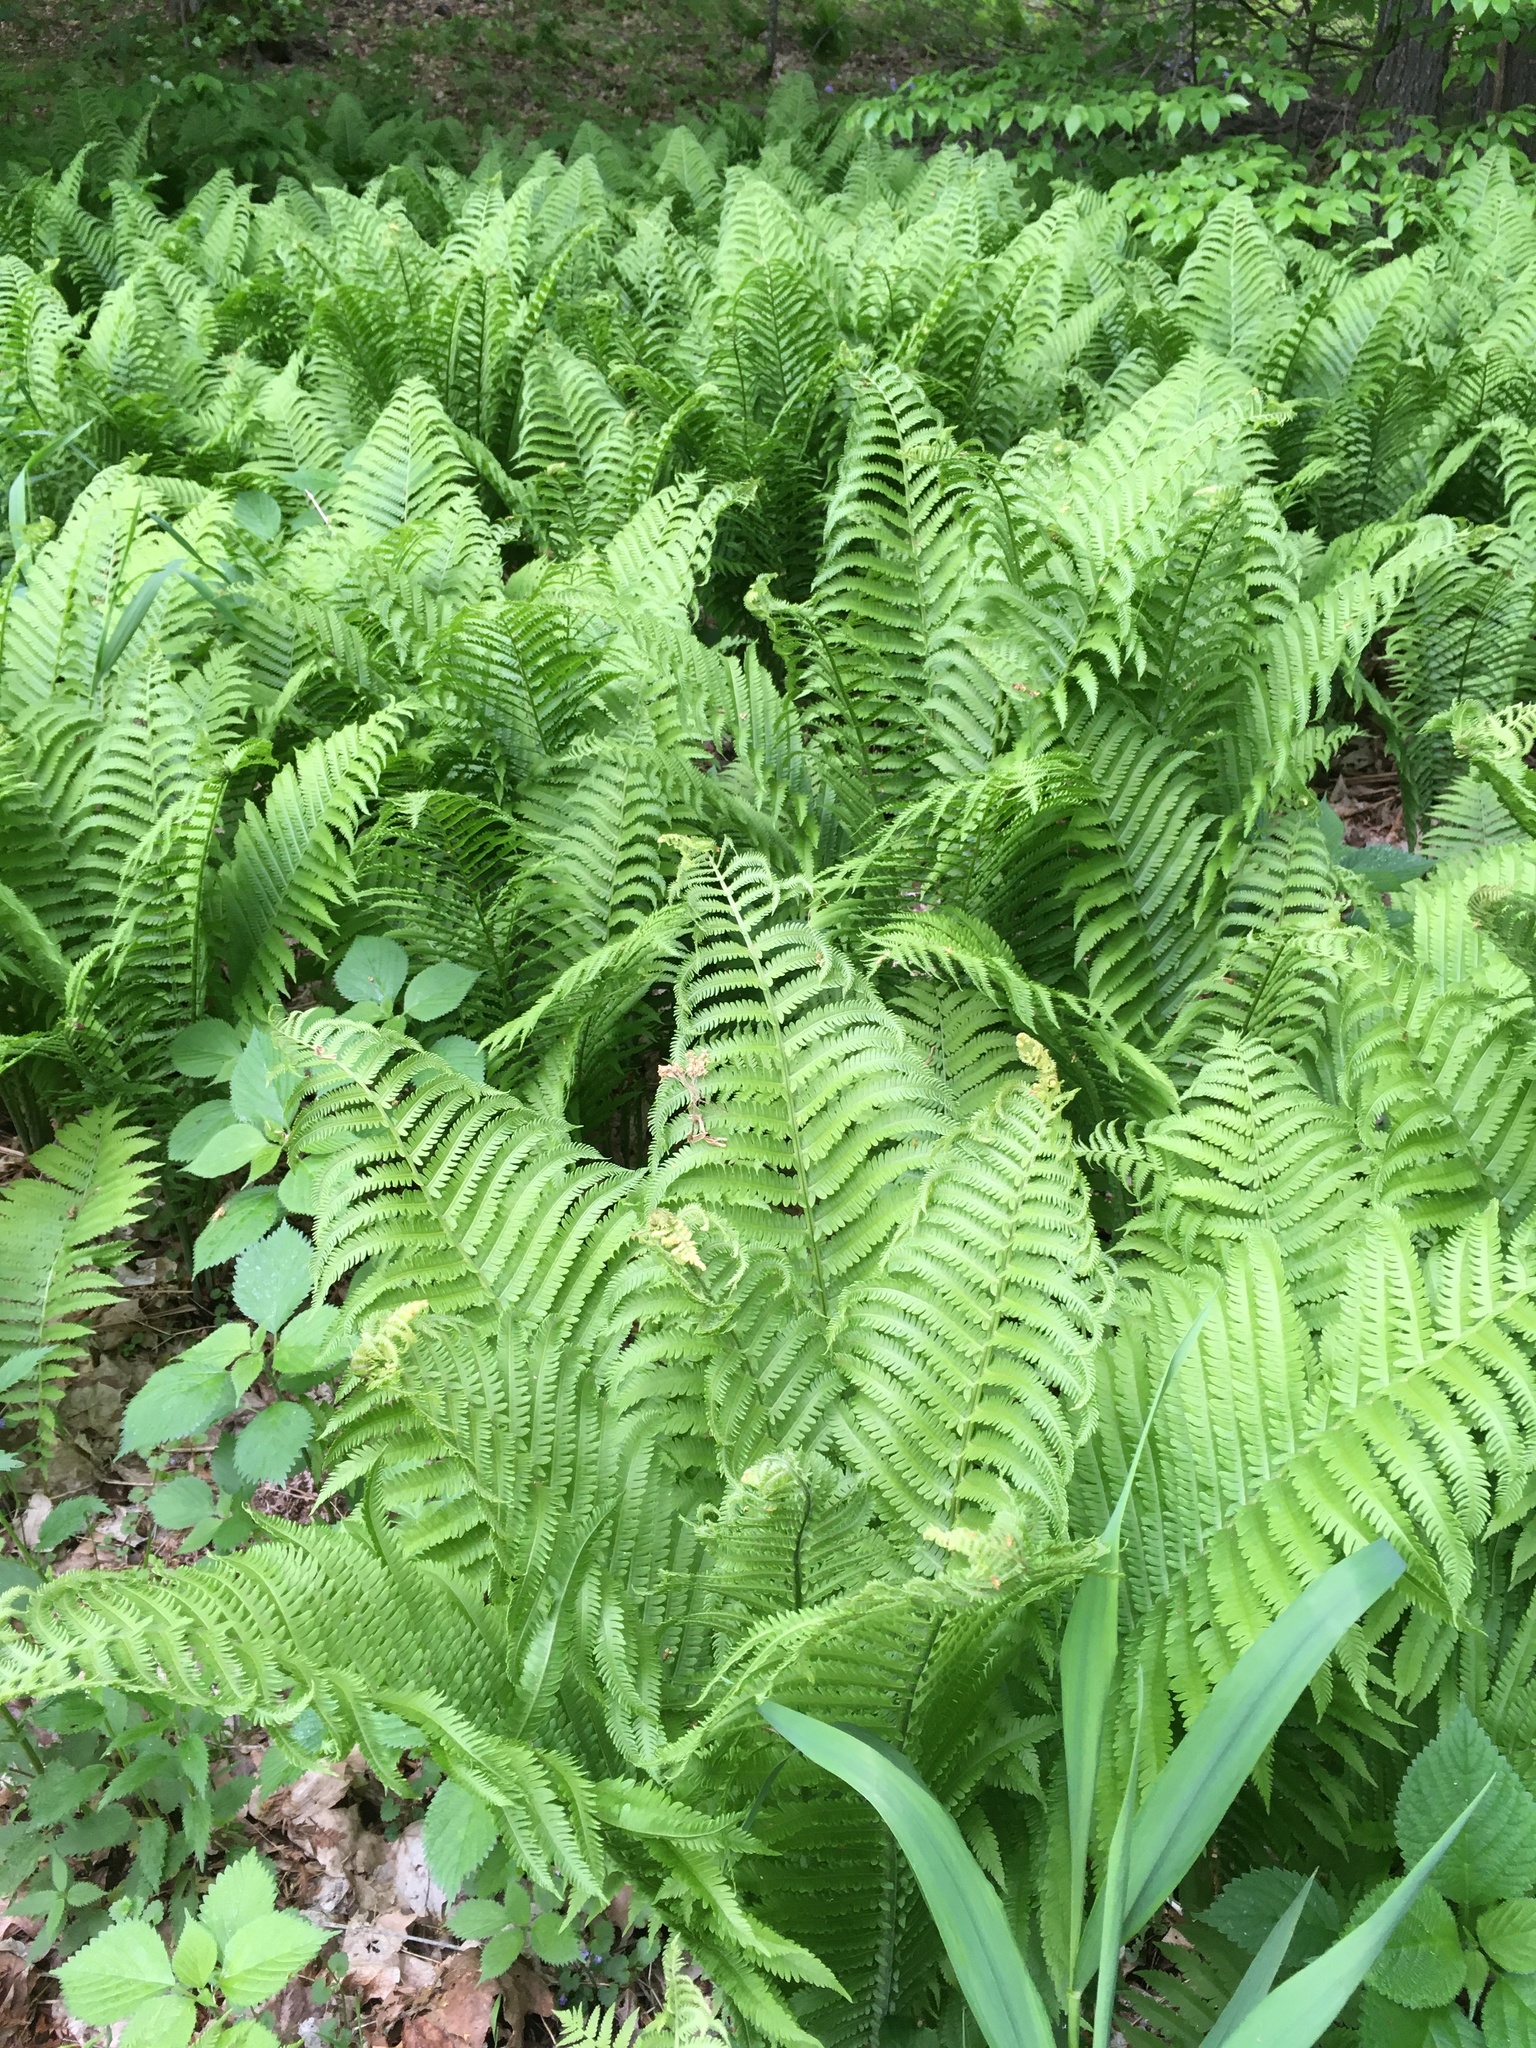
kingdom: Plantae
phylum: Tracheophyta
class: Polypodiopsida
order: Polypodiales
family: Onocleaceae
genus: Matteuccia
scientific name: Matteuccia struthiopteris
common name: Ostrich fern
